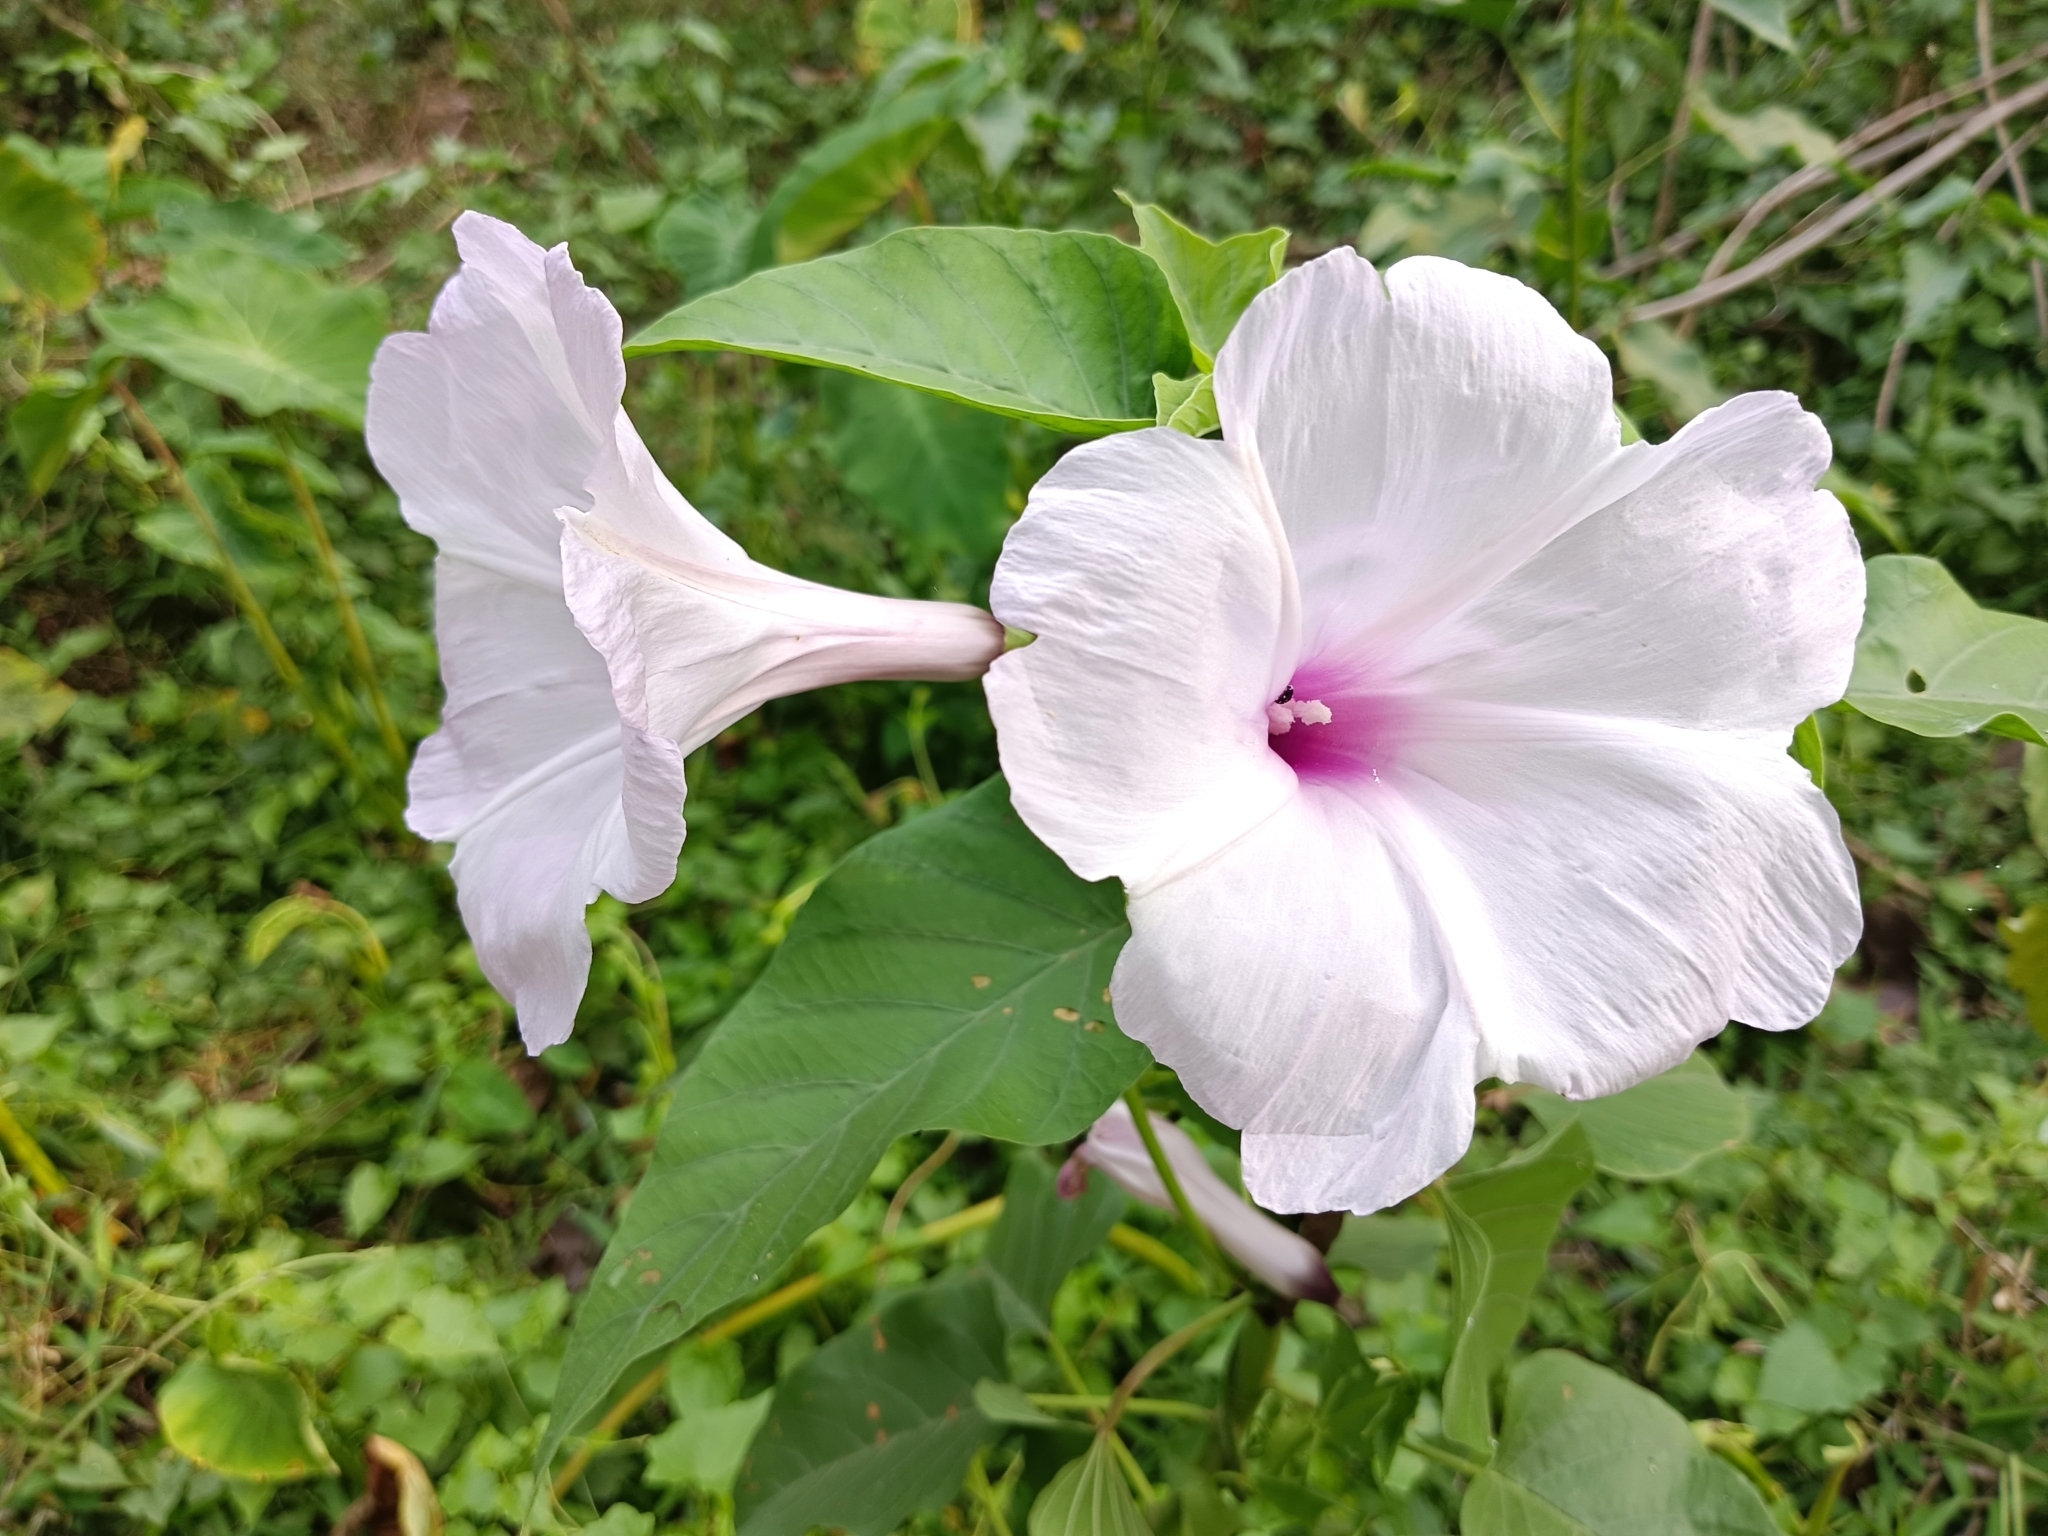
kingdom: Plantae
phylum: Tracheophyta
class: Magnoliopsida
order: Solanales
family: Convolvulaceae
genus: Ipomoea
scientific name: Ipomoea carnea
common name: Morning-glory
